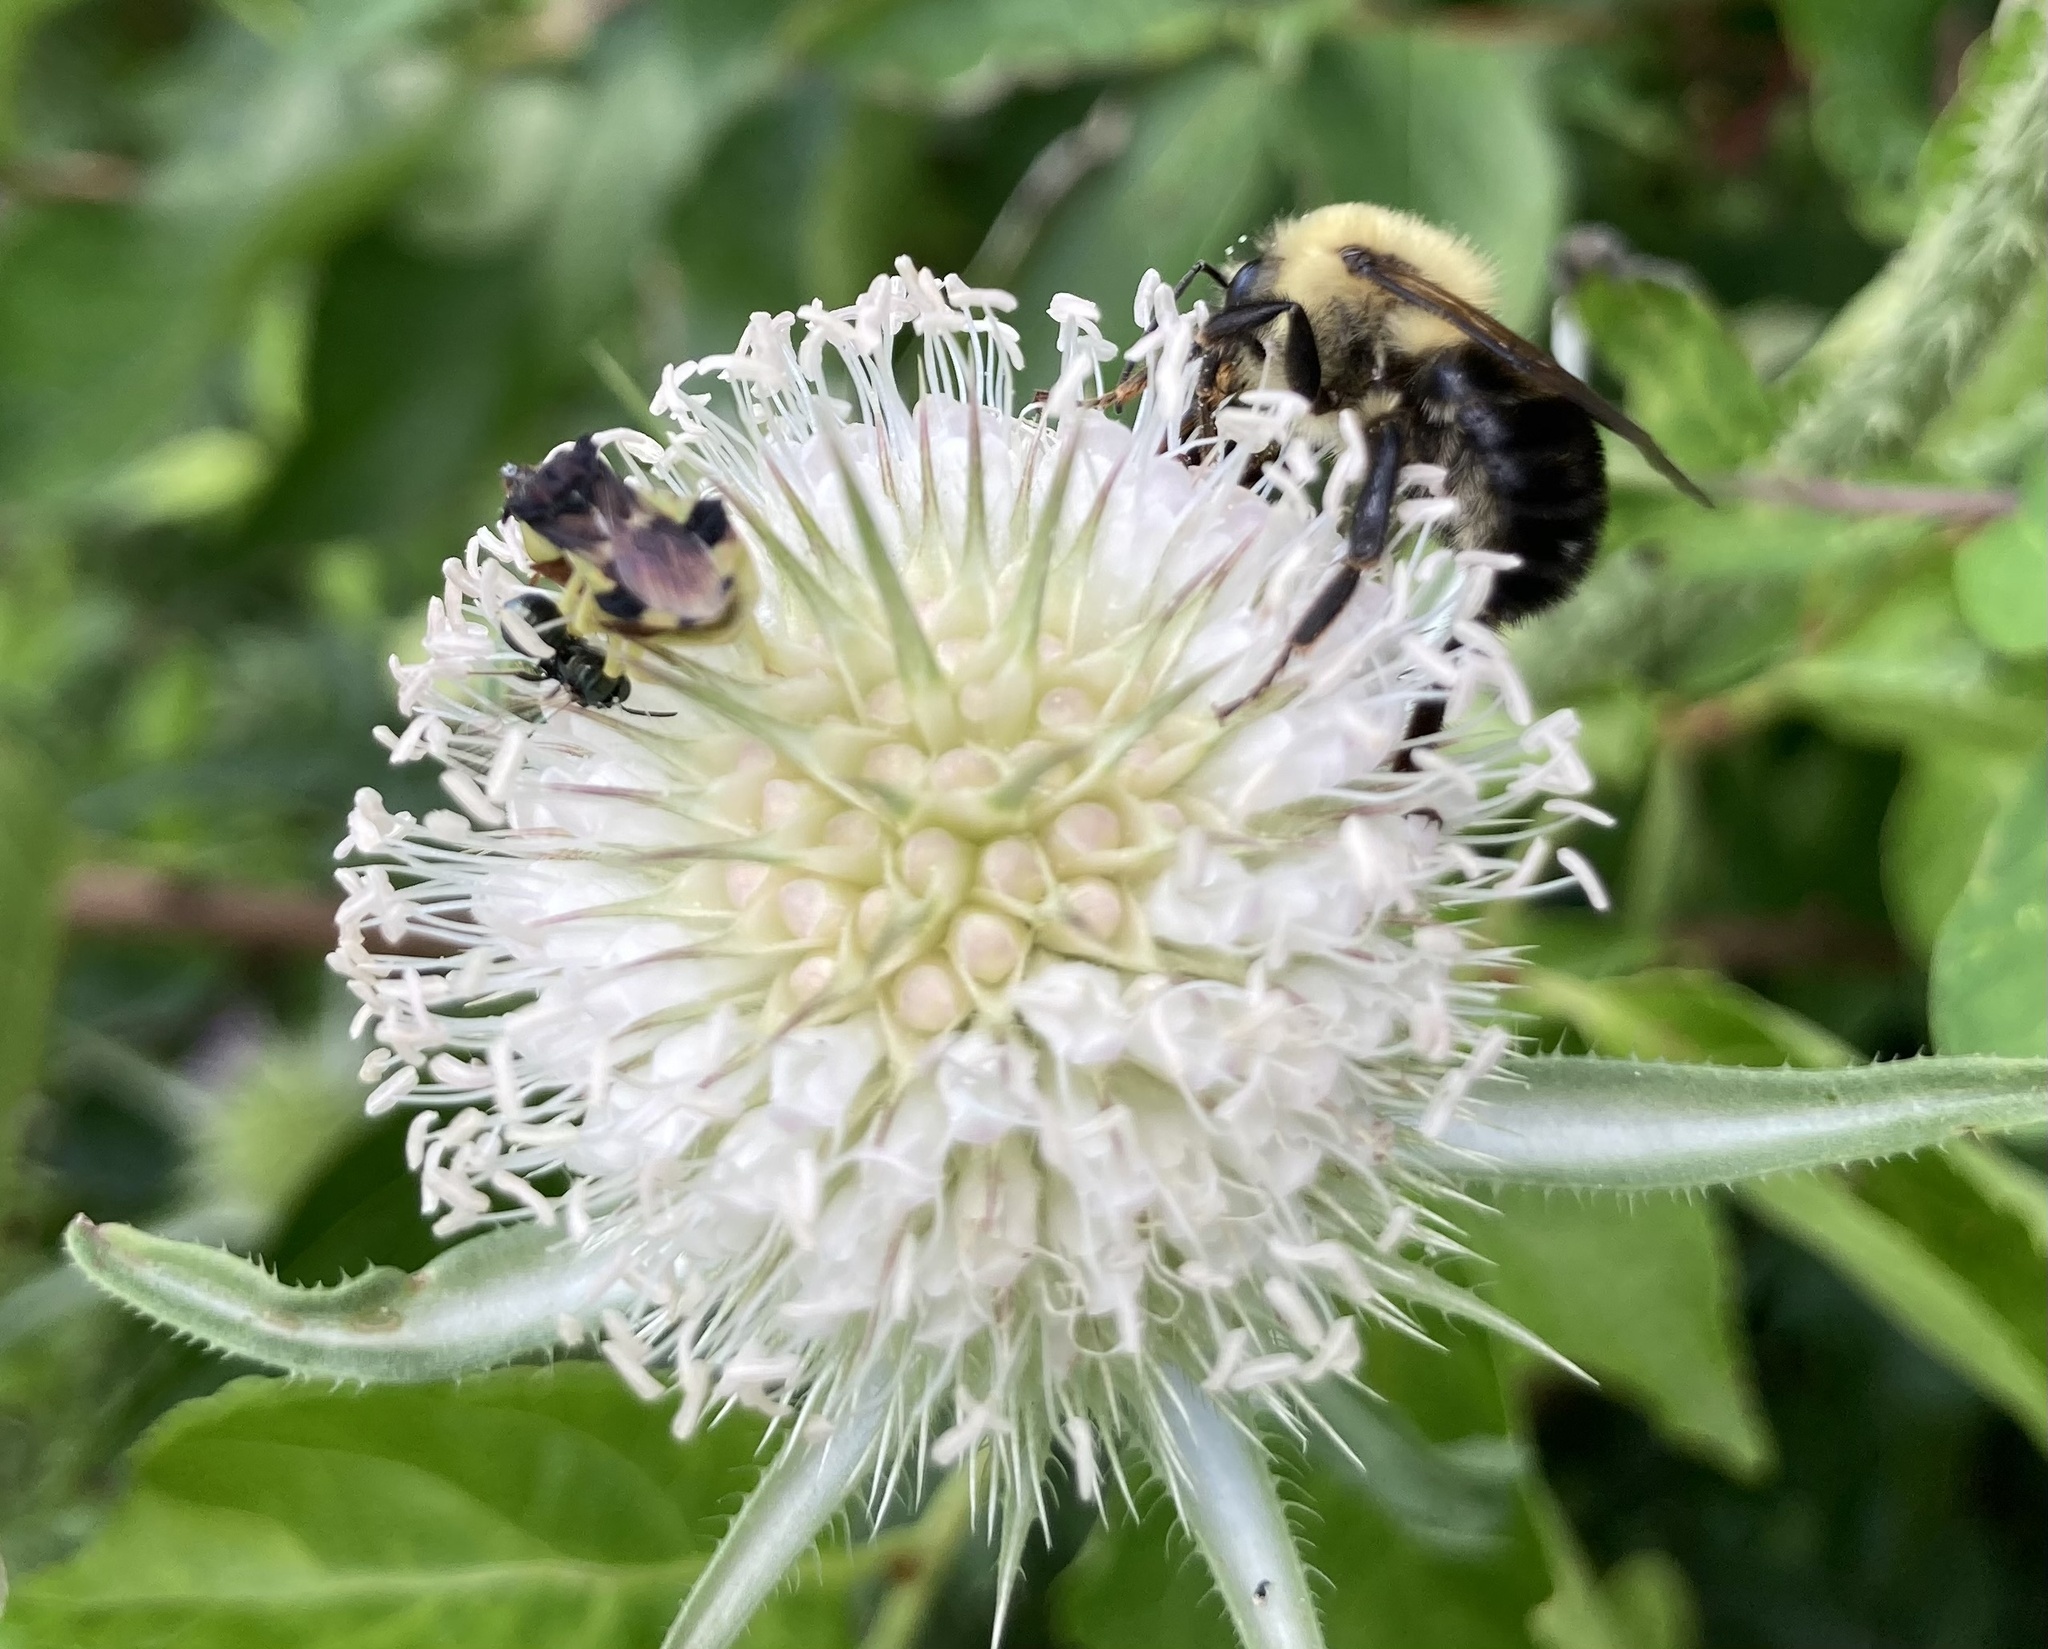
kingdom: Animalia
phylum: Arthropoda
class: Insecta
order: Hymenoptera
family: Apidae
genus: Bombus
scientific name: Bombus bimaculatus
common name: Two-spotted bumble bee
